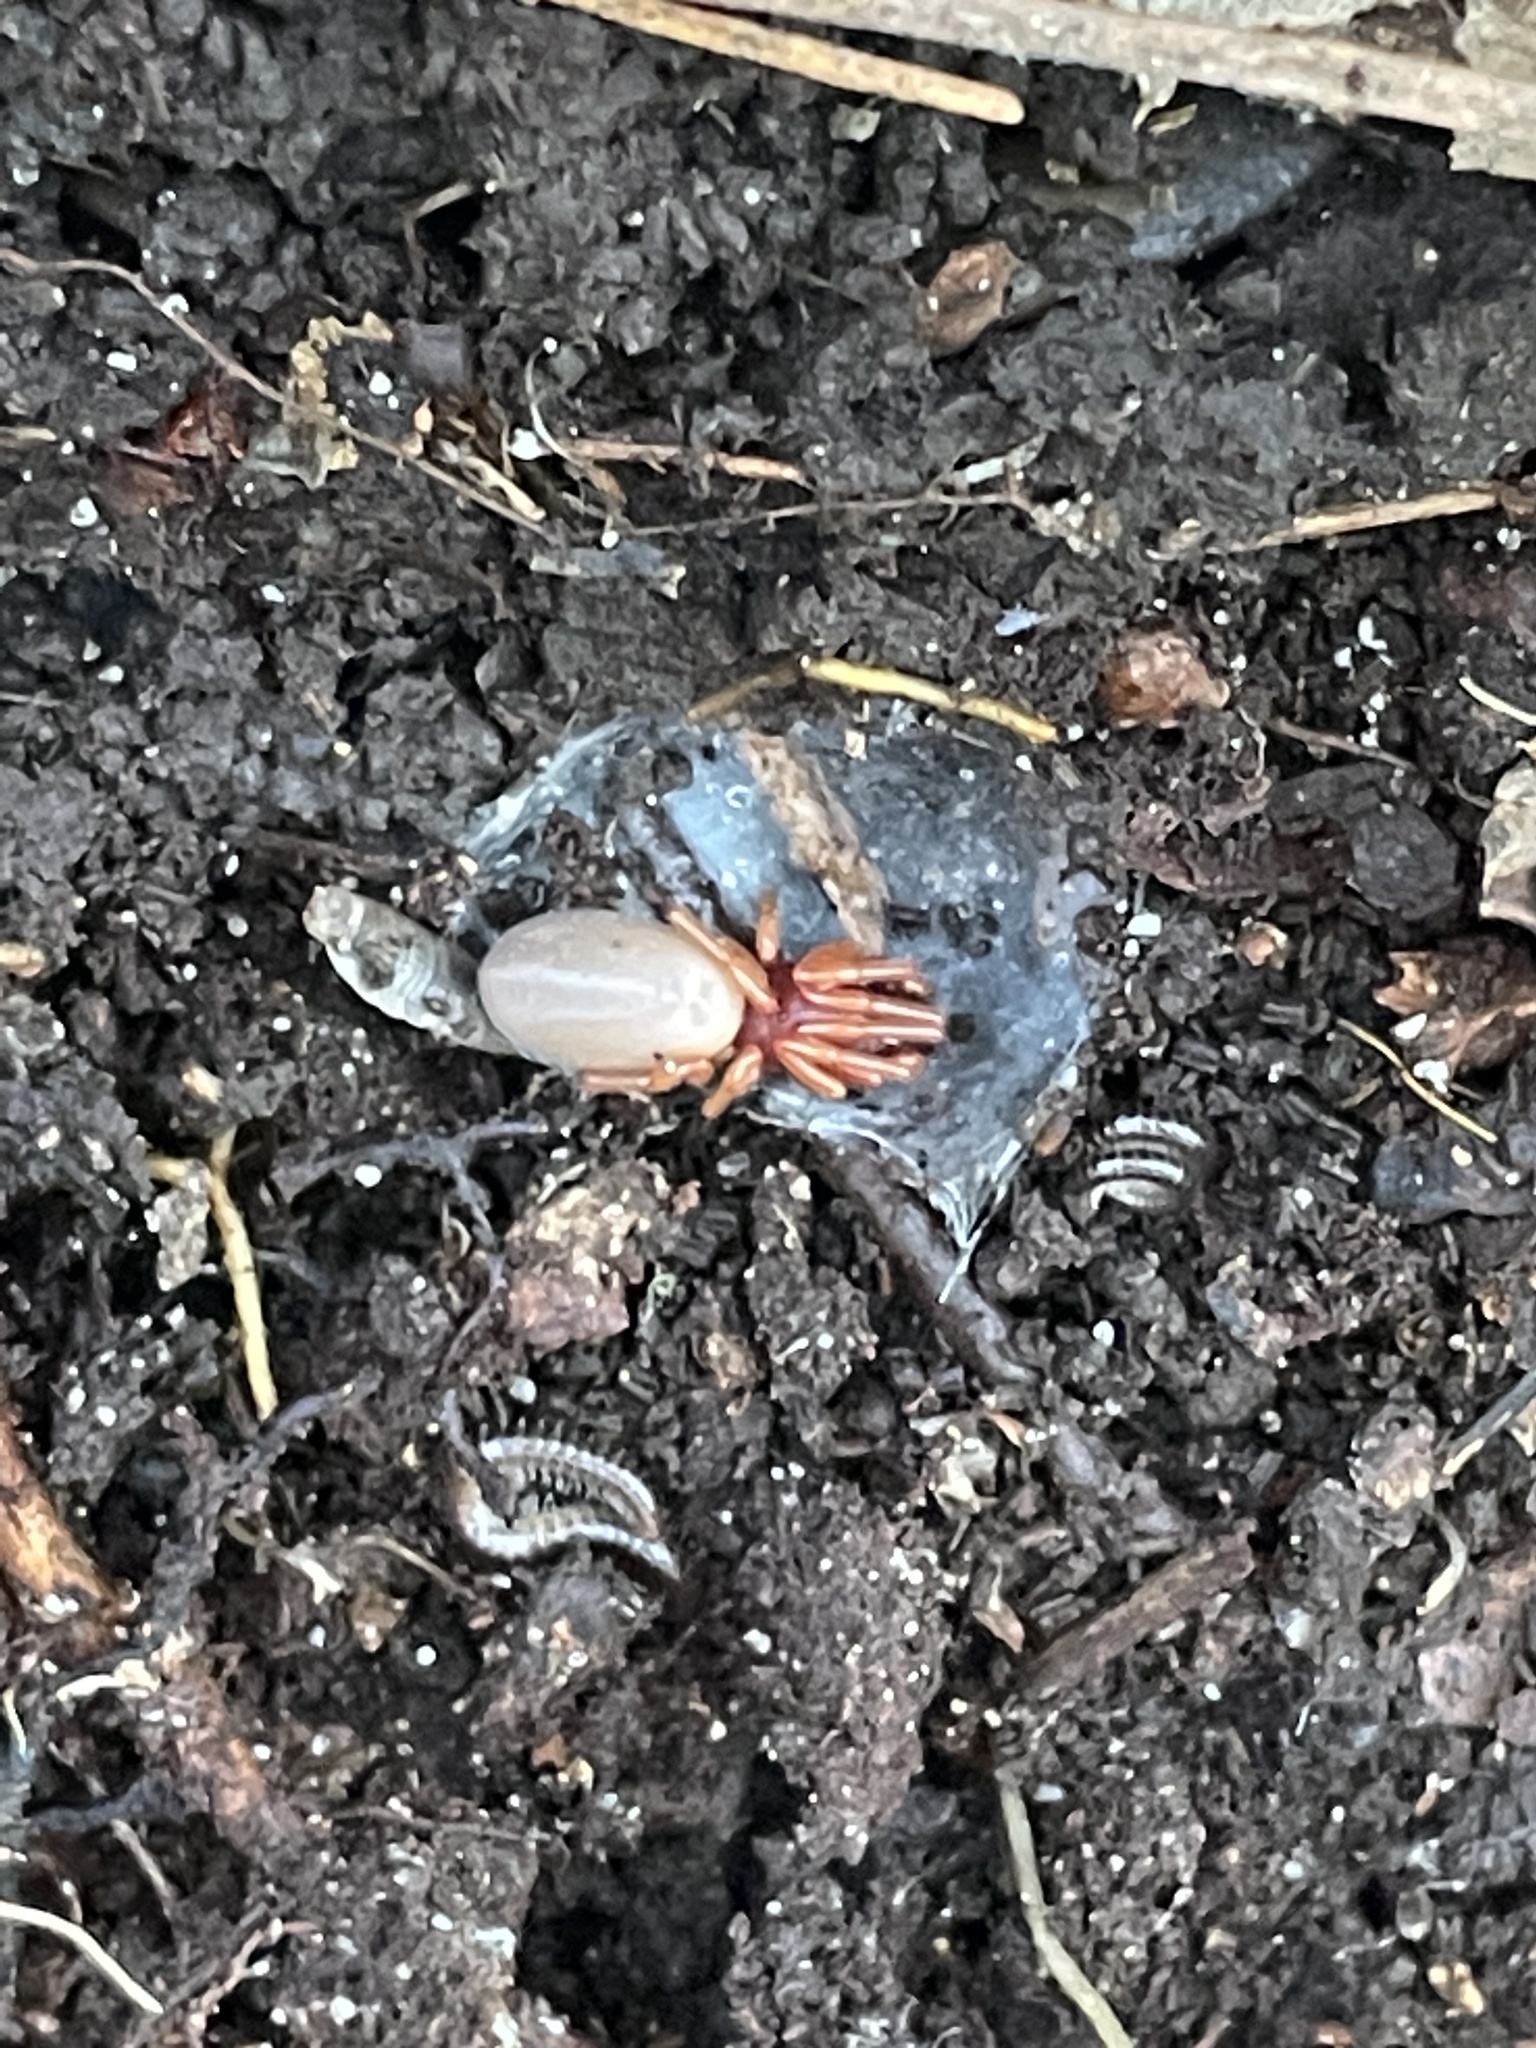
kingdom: Animalia
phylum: Arthropoda
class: Arachnida
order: Araneae
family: Dysderidae
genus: Dysdera
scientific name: Dysdera crocata
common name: Woodlouse spider
